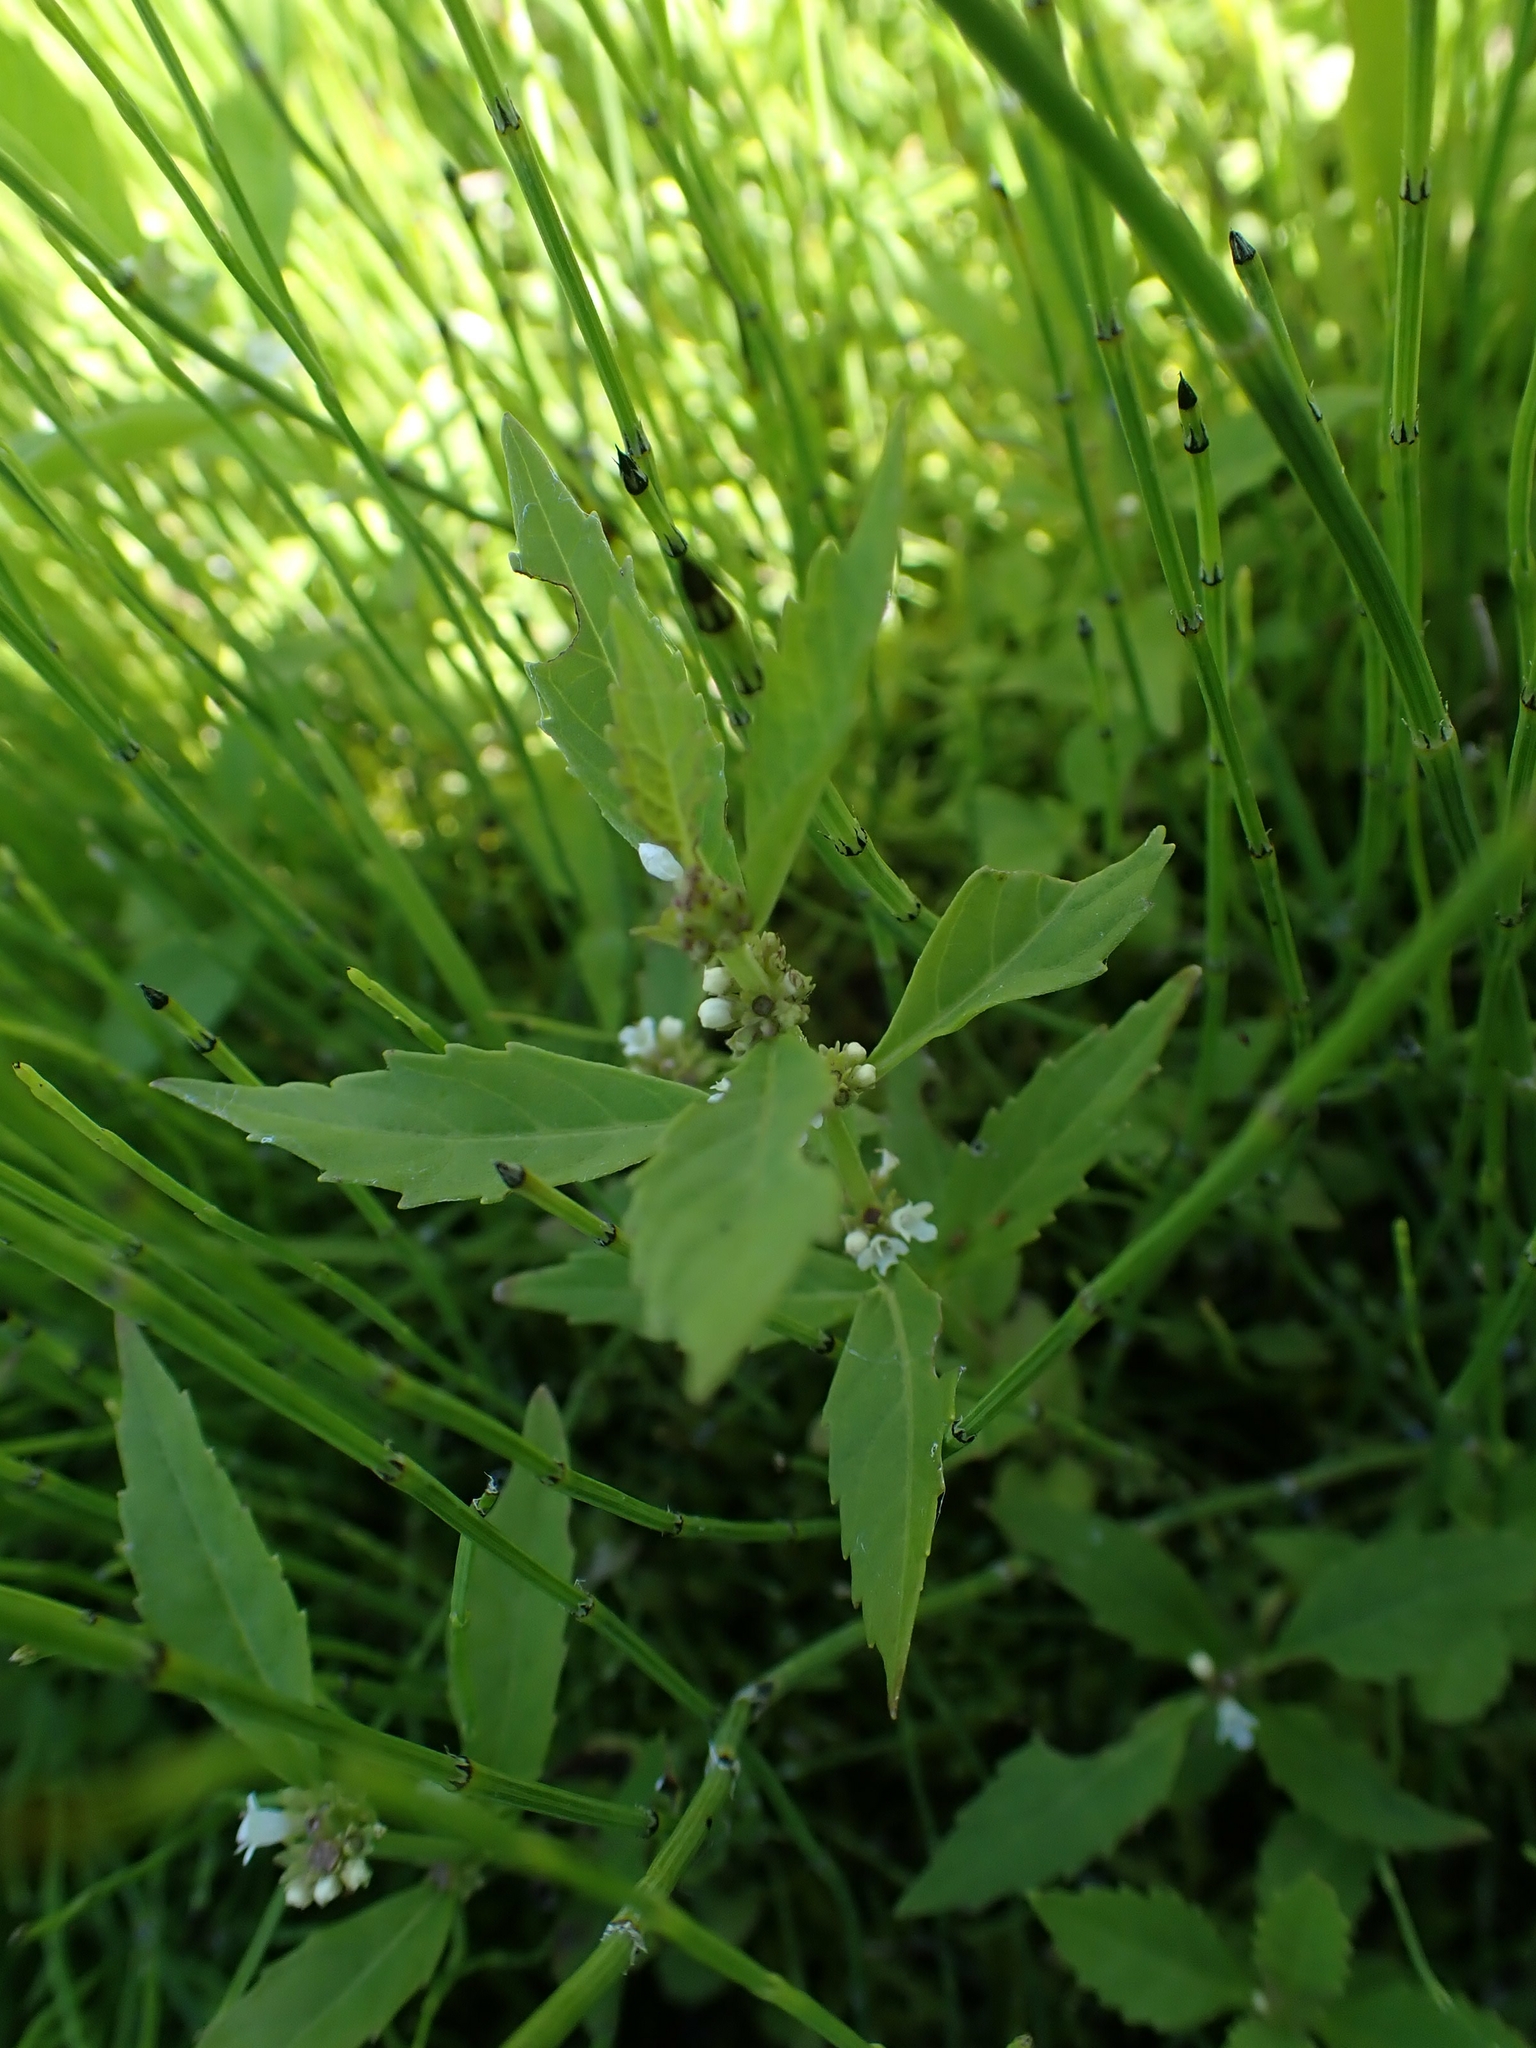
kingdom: Plantae
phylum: Tracheophyta
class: Magnoliopsida
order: Lamiales
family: Lamiaceae
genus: Lycopus
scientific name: Lycopus uniflorus
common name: Northern bugleweed
